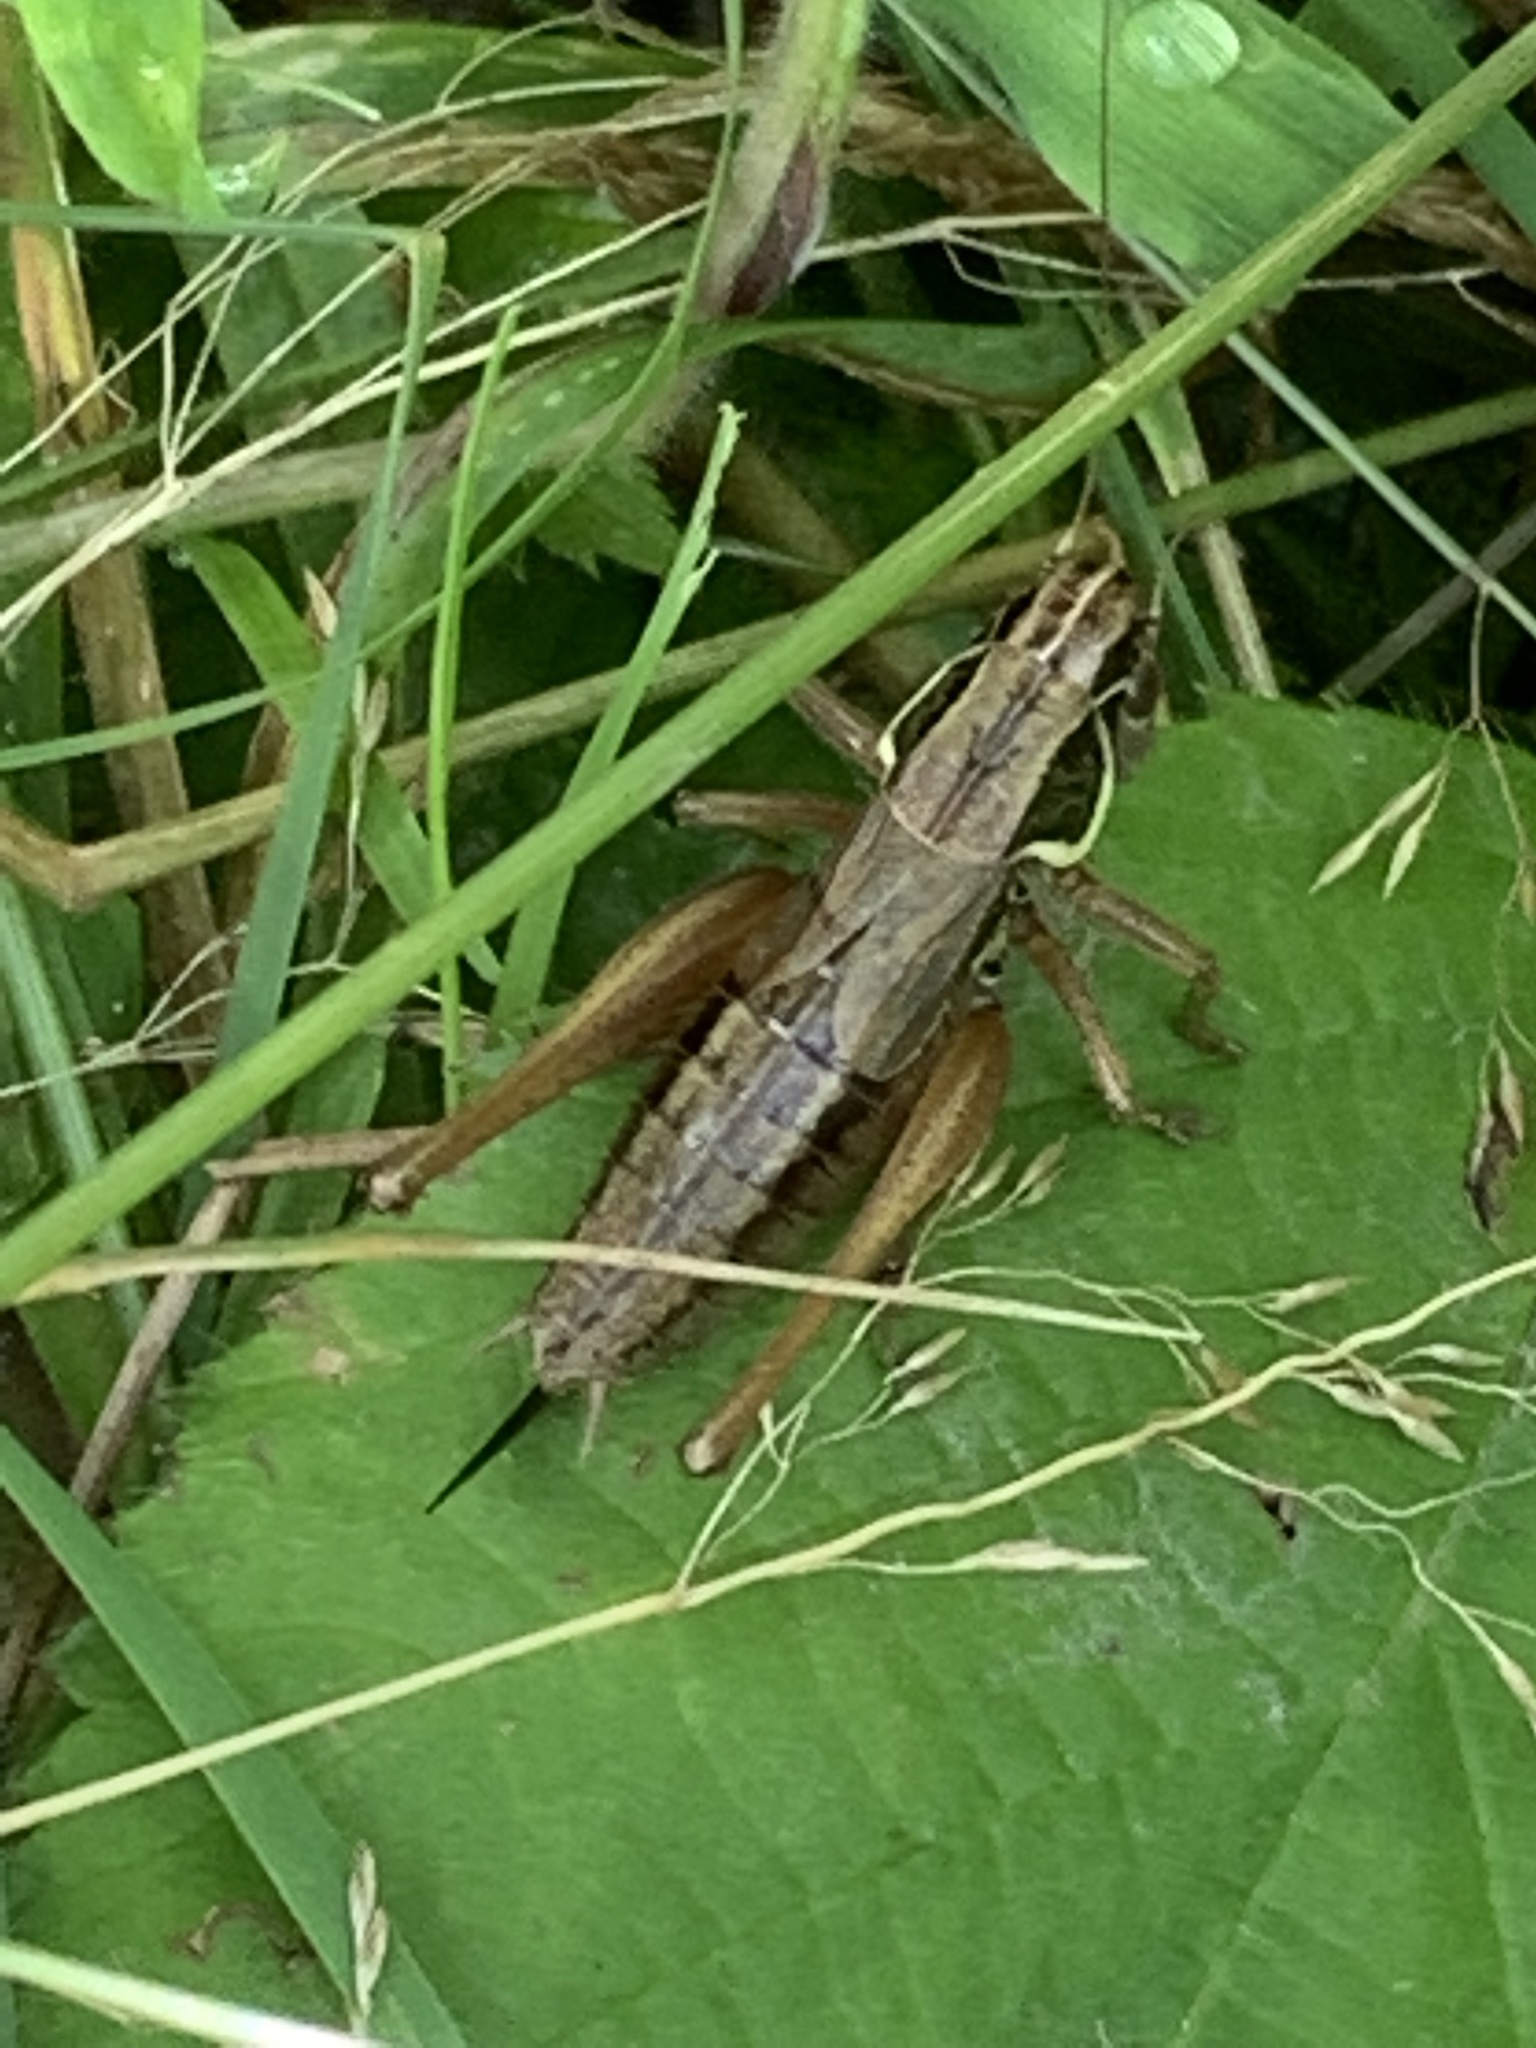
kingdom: Animalia
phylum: Arthropoda
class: Insecta
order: Orthoptera
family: Tettigoniidae
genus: Roeseliana
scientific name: Roeseliana roeselii
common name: Roesel's bush cricket
